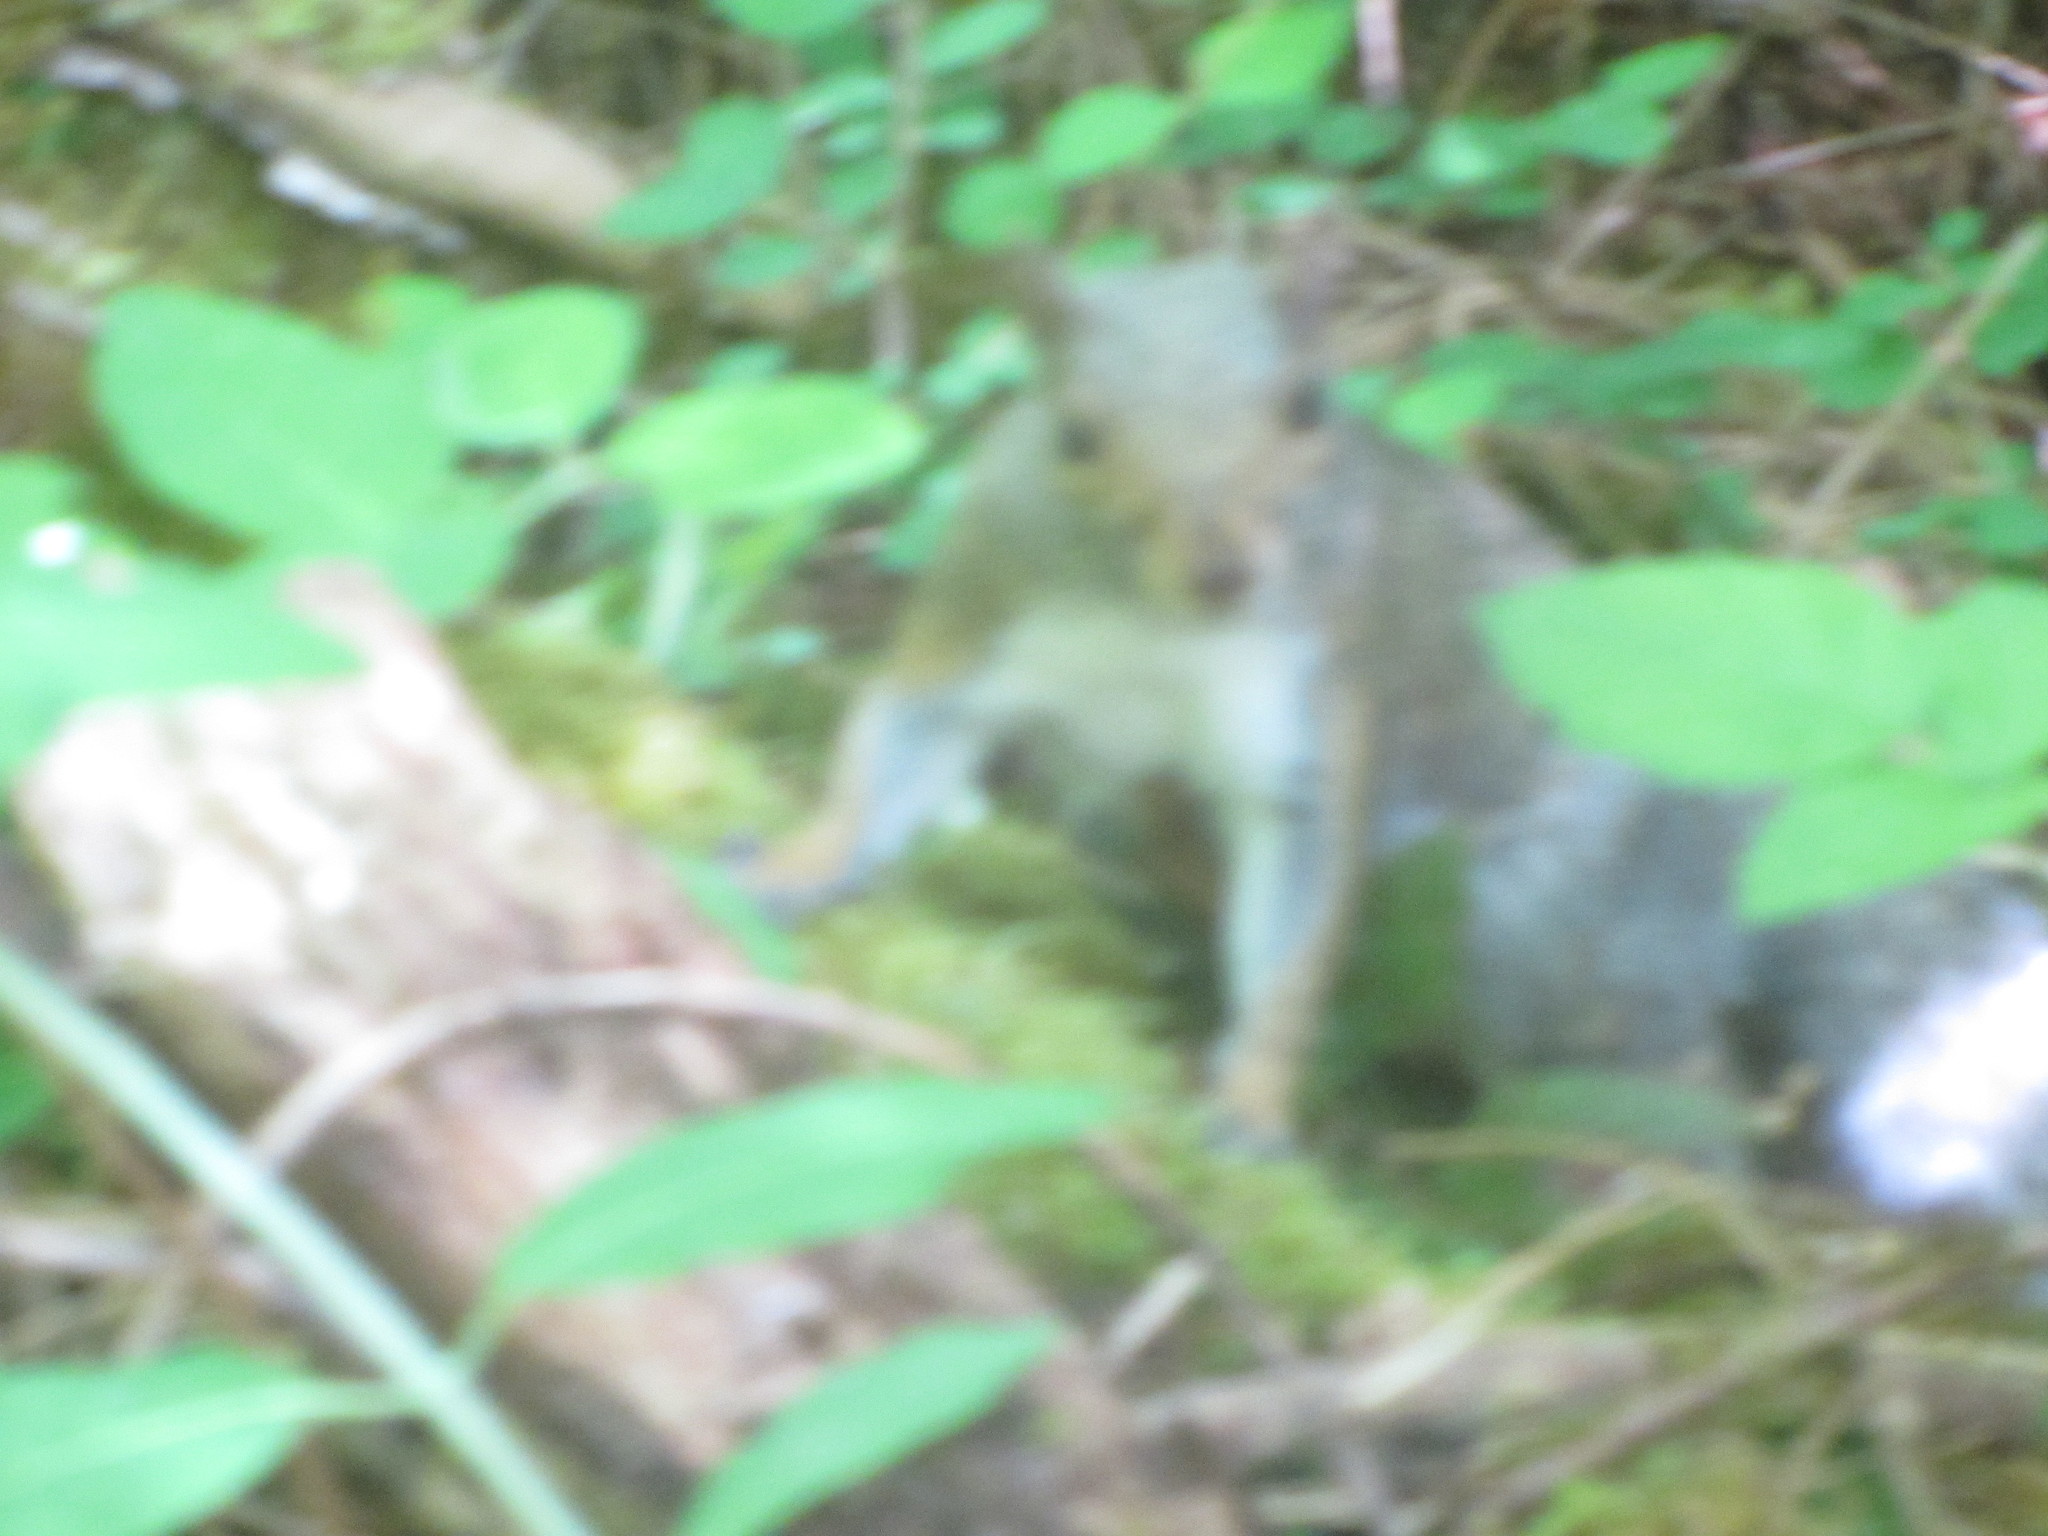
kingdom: Animalia
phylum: Chordata
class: Mammalia
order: Rodentia
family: Sciuridae
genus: Sciurus
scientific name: Sciurus carolinensis
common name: Eastern gray squirrel
